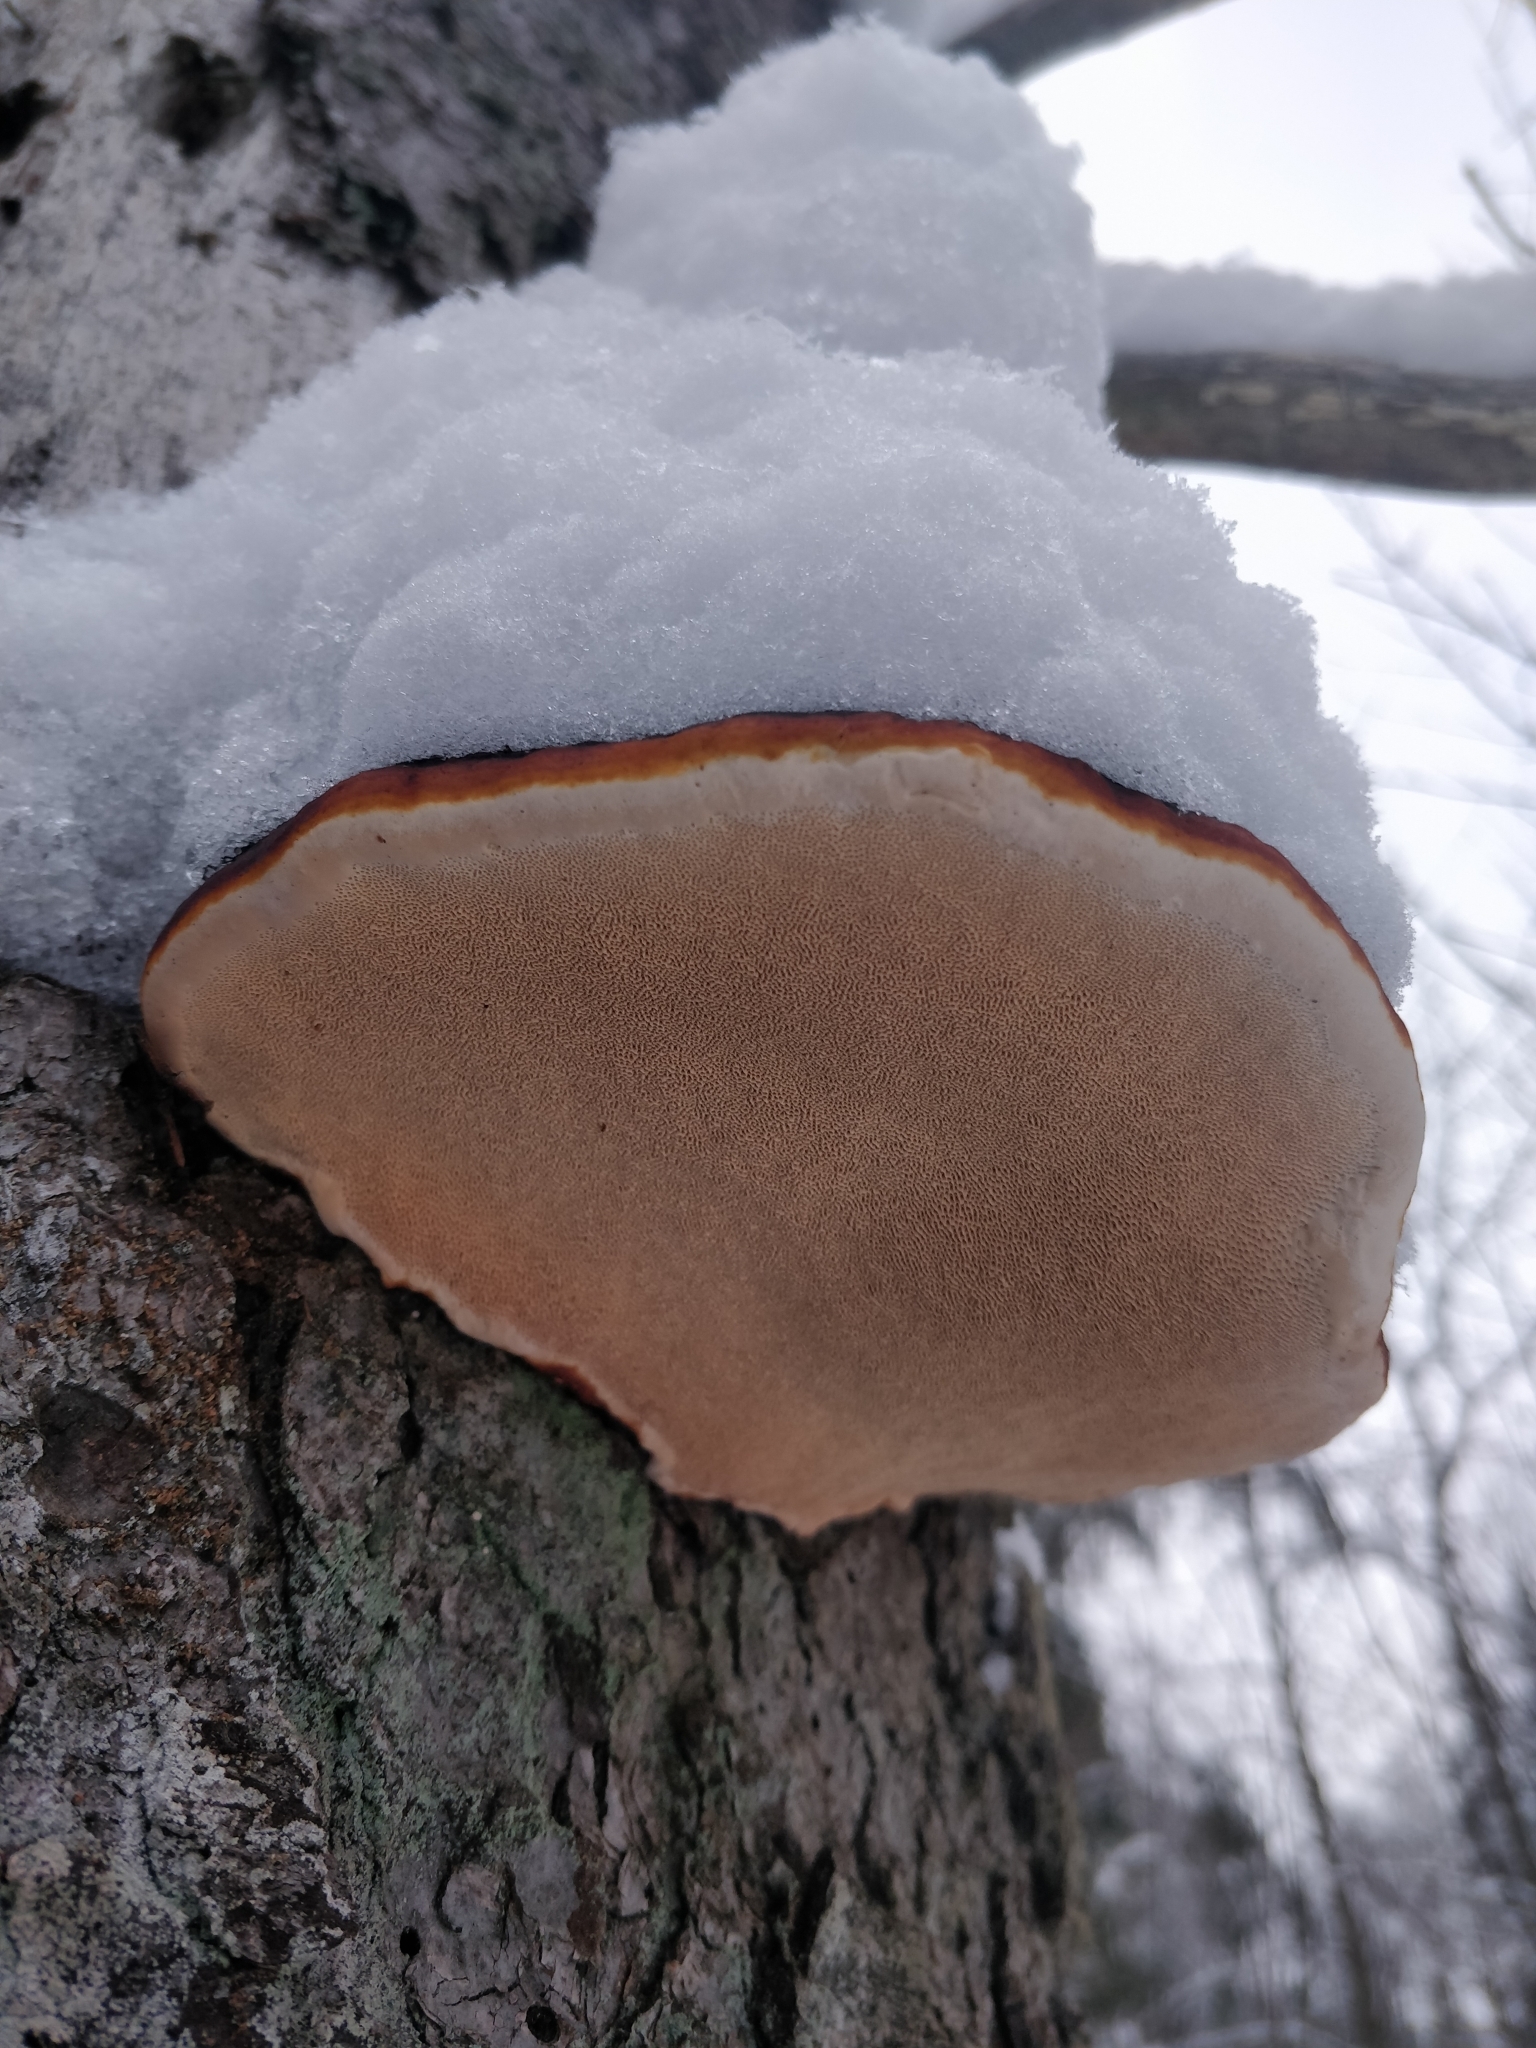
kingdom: Fungi
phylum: Basidiomycota
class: Agaricomycetes
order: Polyporales
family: Fomitopsidaceae
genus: Fomitopsis
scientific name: Fomitopsis pinicola
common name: Red-belted bracket
